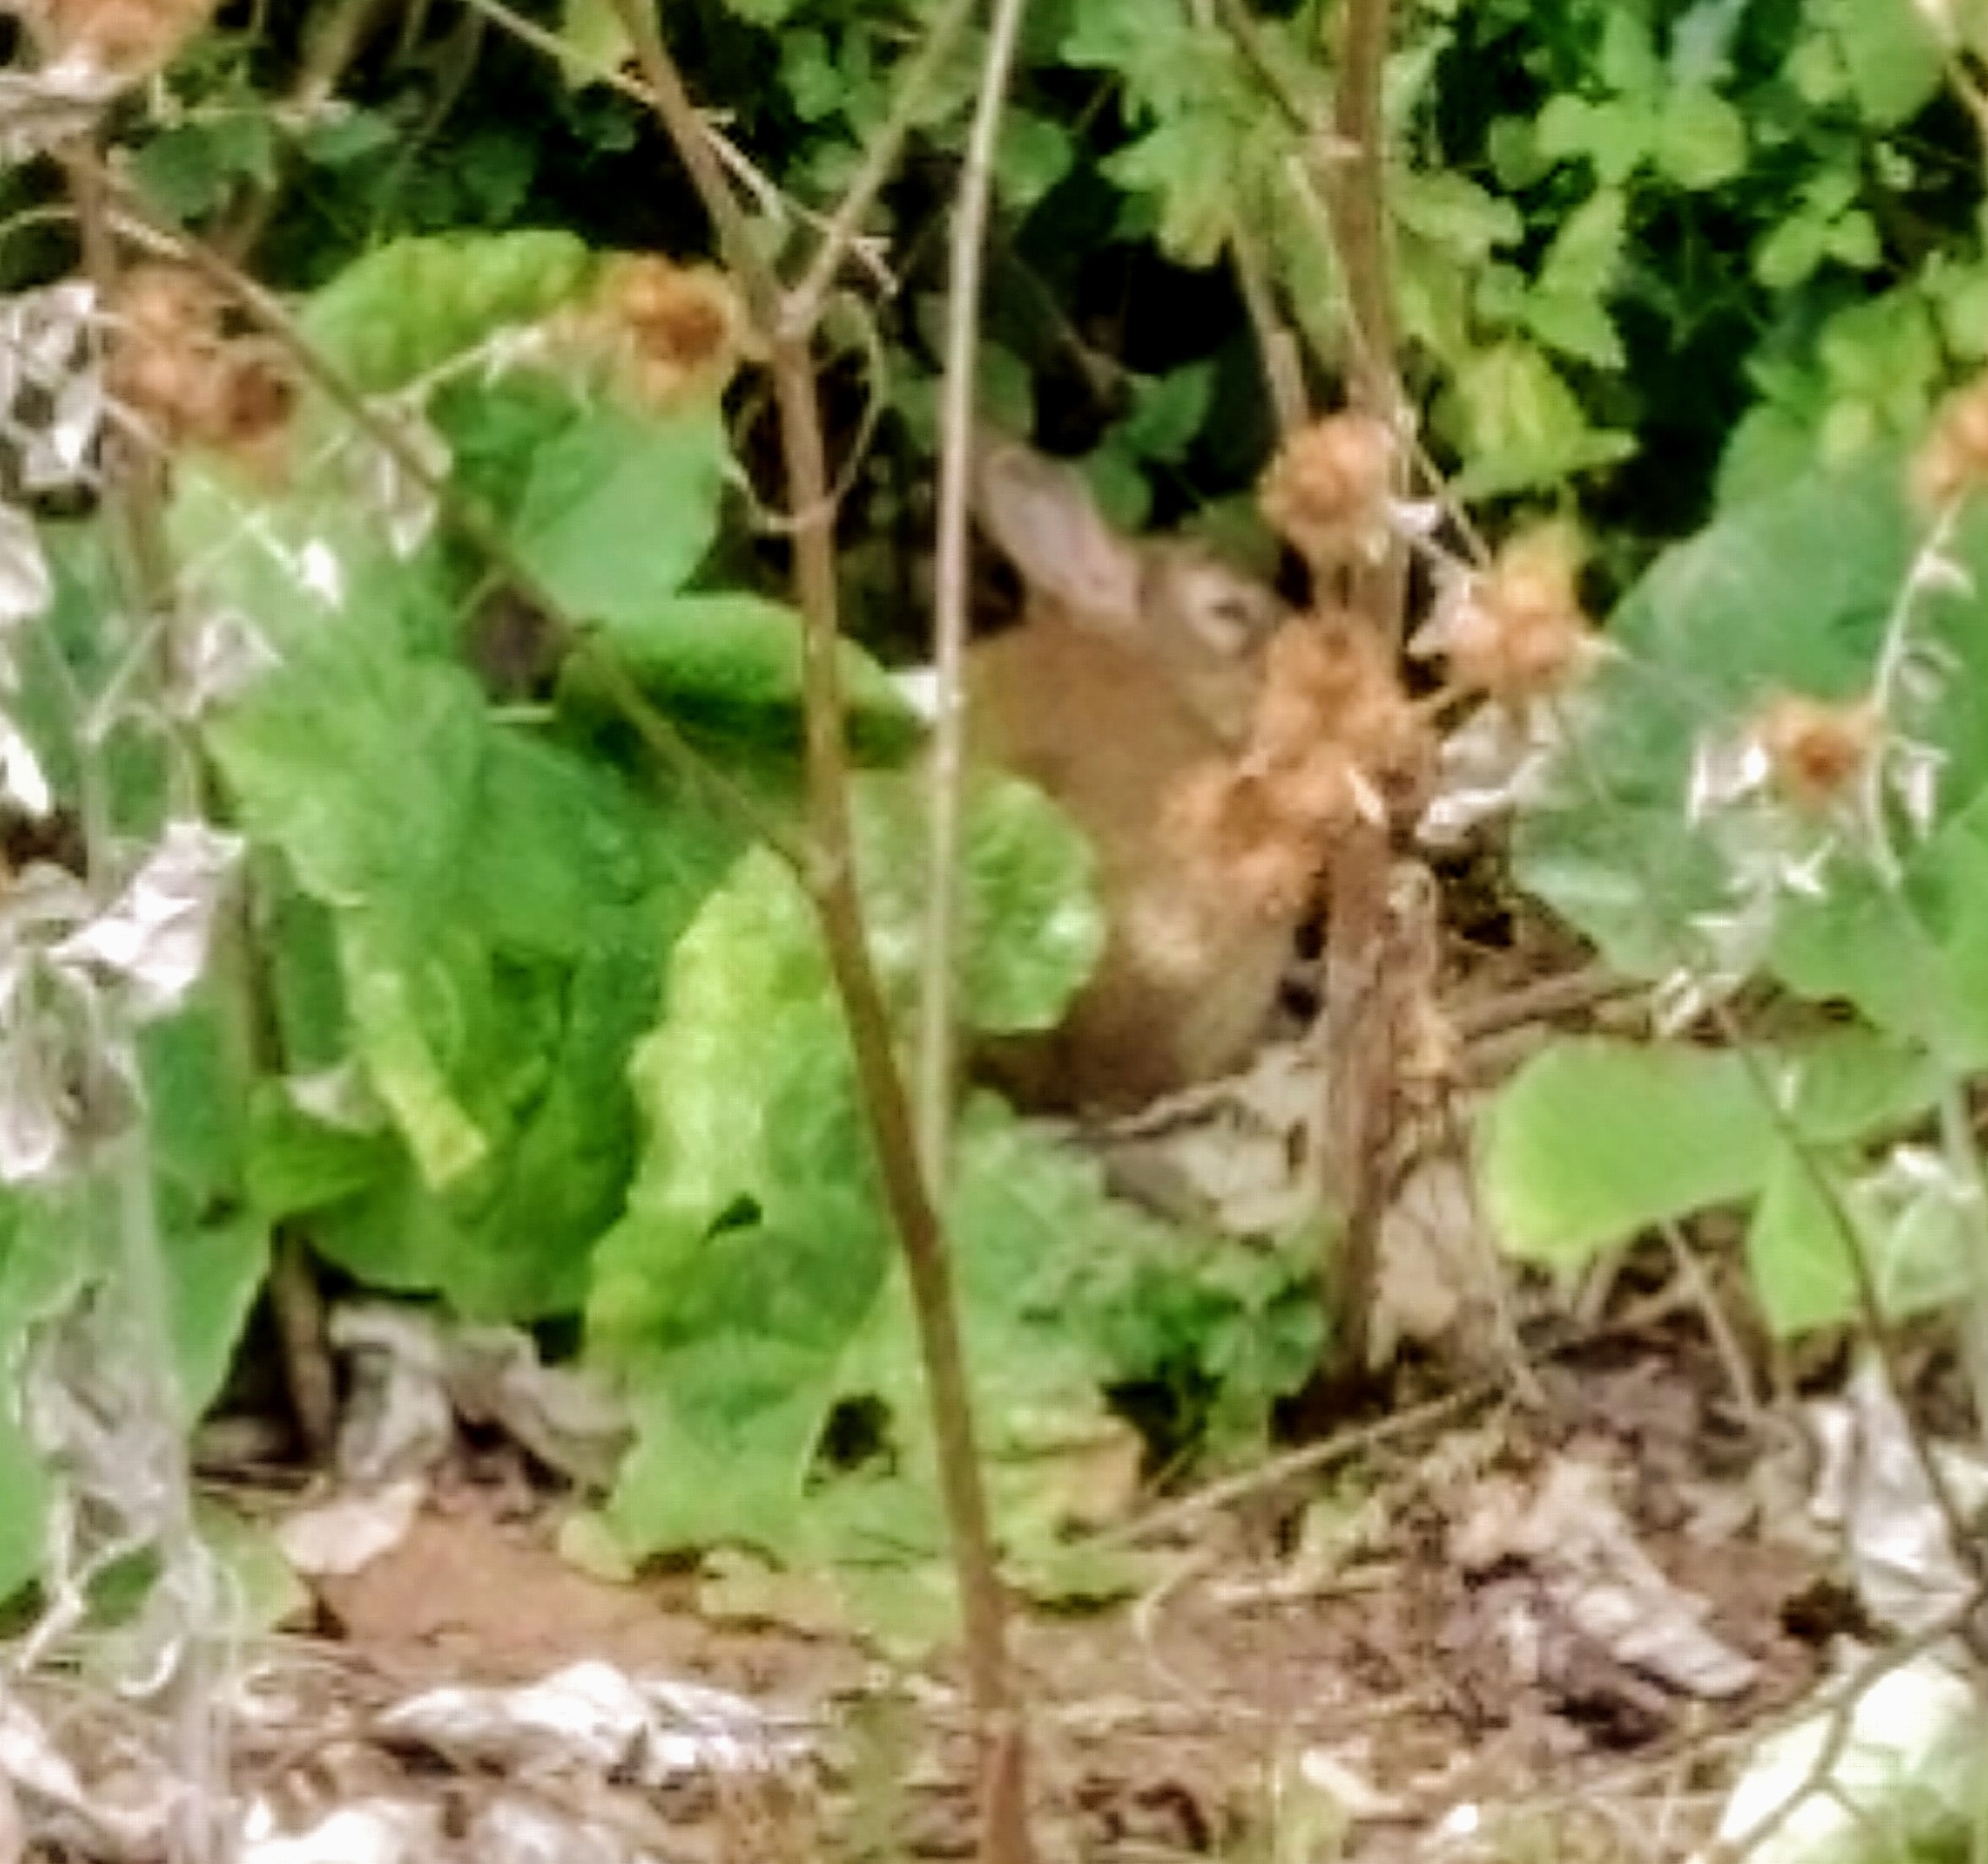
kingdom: Animalia
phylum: Chordata
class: Mammalia
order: Lagomorpha
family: Leporidae
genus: Oryctolagus
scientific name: Oryctolagus cuniculus
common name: European rabbit
